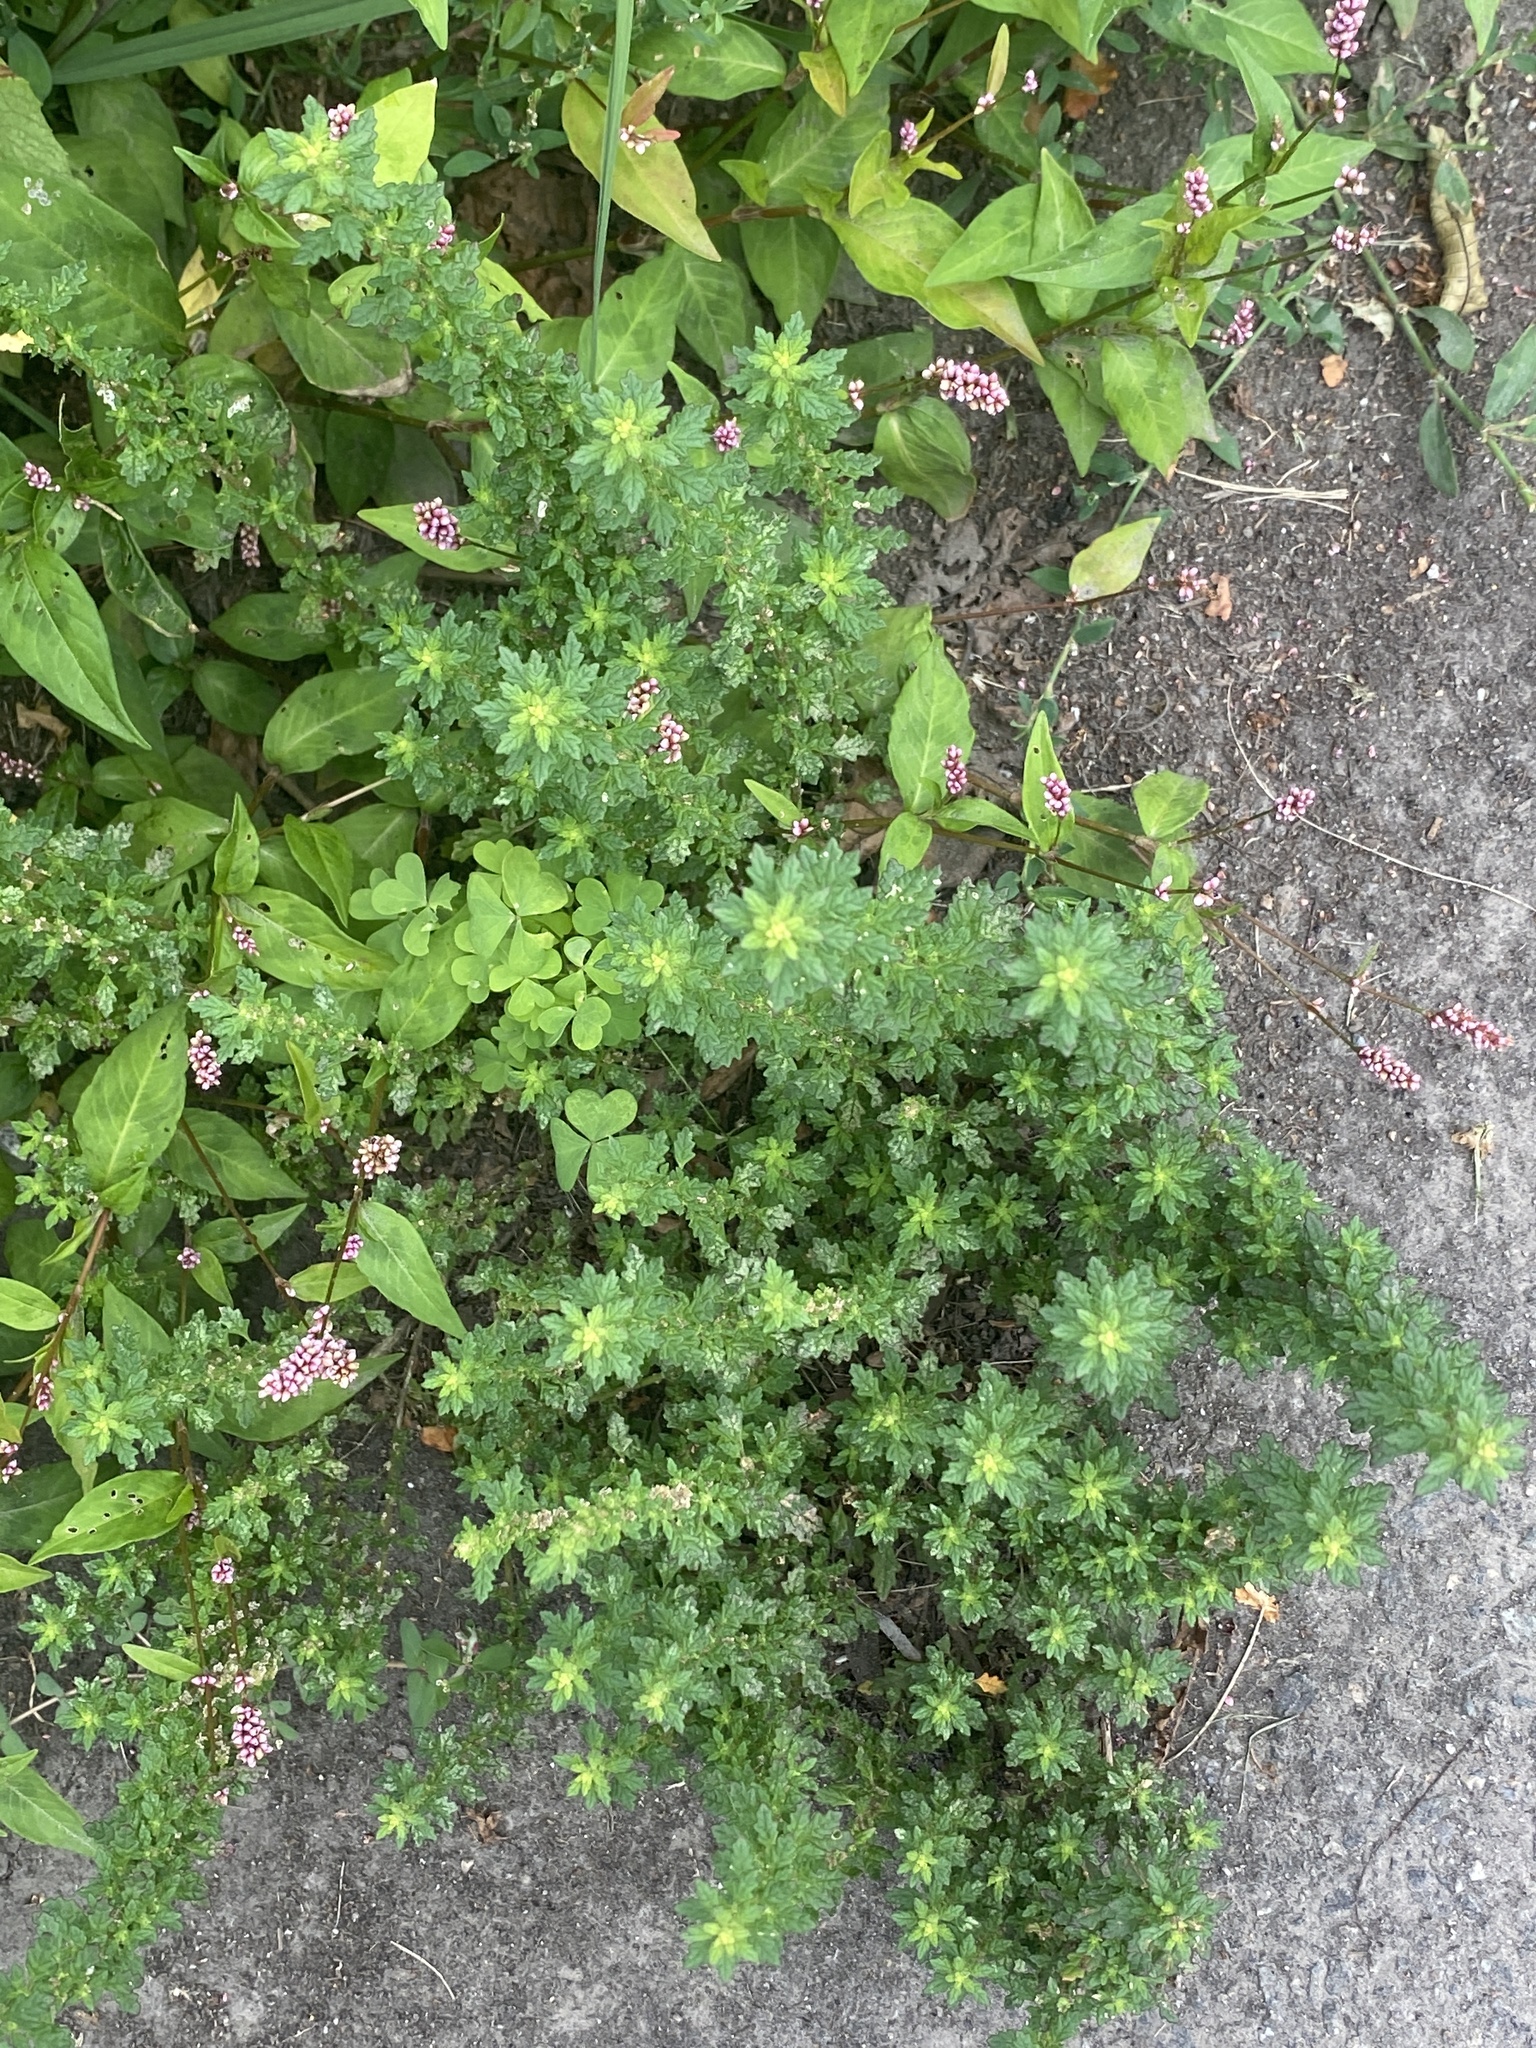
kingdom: Plantae
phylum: Tracheophyta
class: Magnoliopsida
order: Caryophyllales
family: Amaranthaceae
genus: Dysphania
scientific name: Dysphania pumilio
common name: Clammy goosefoot
